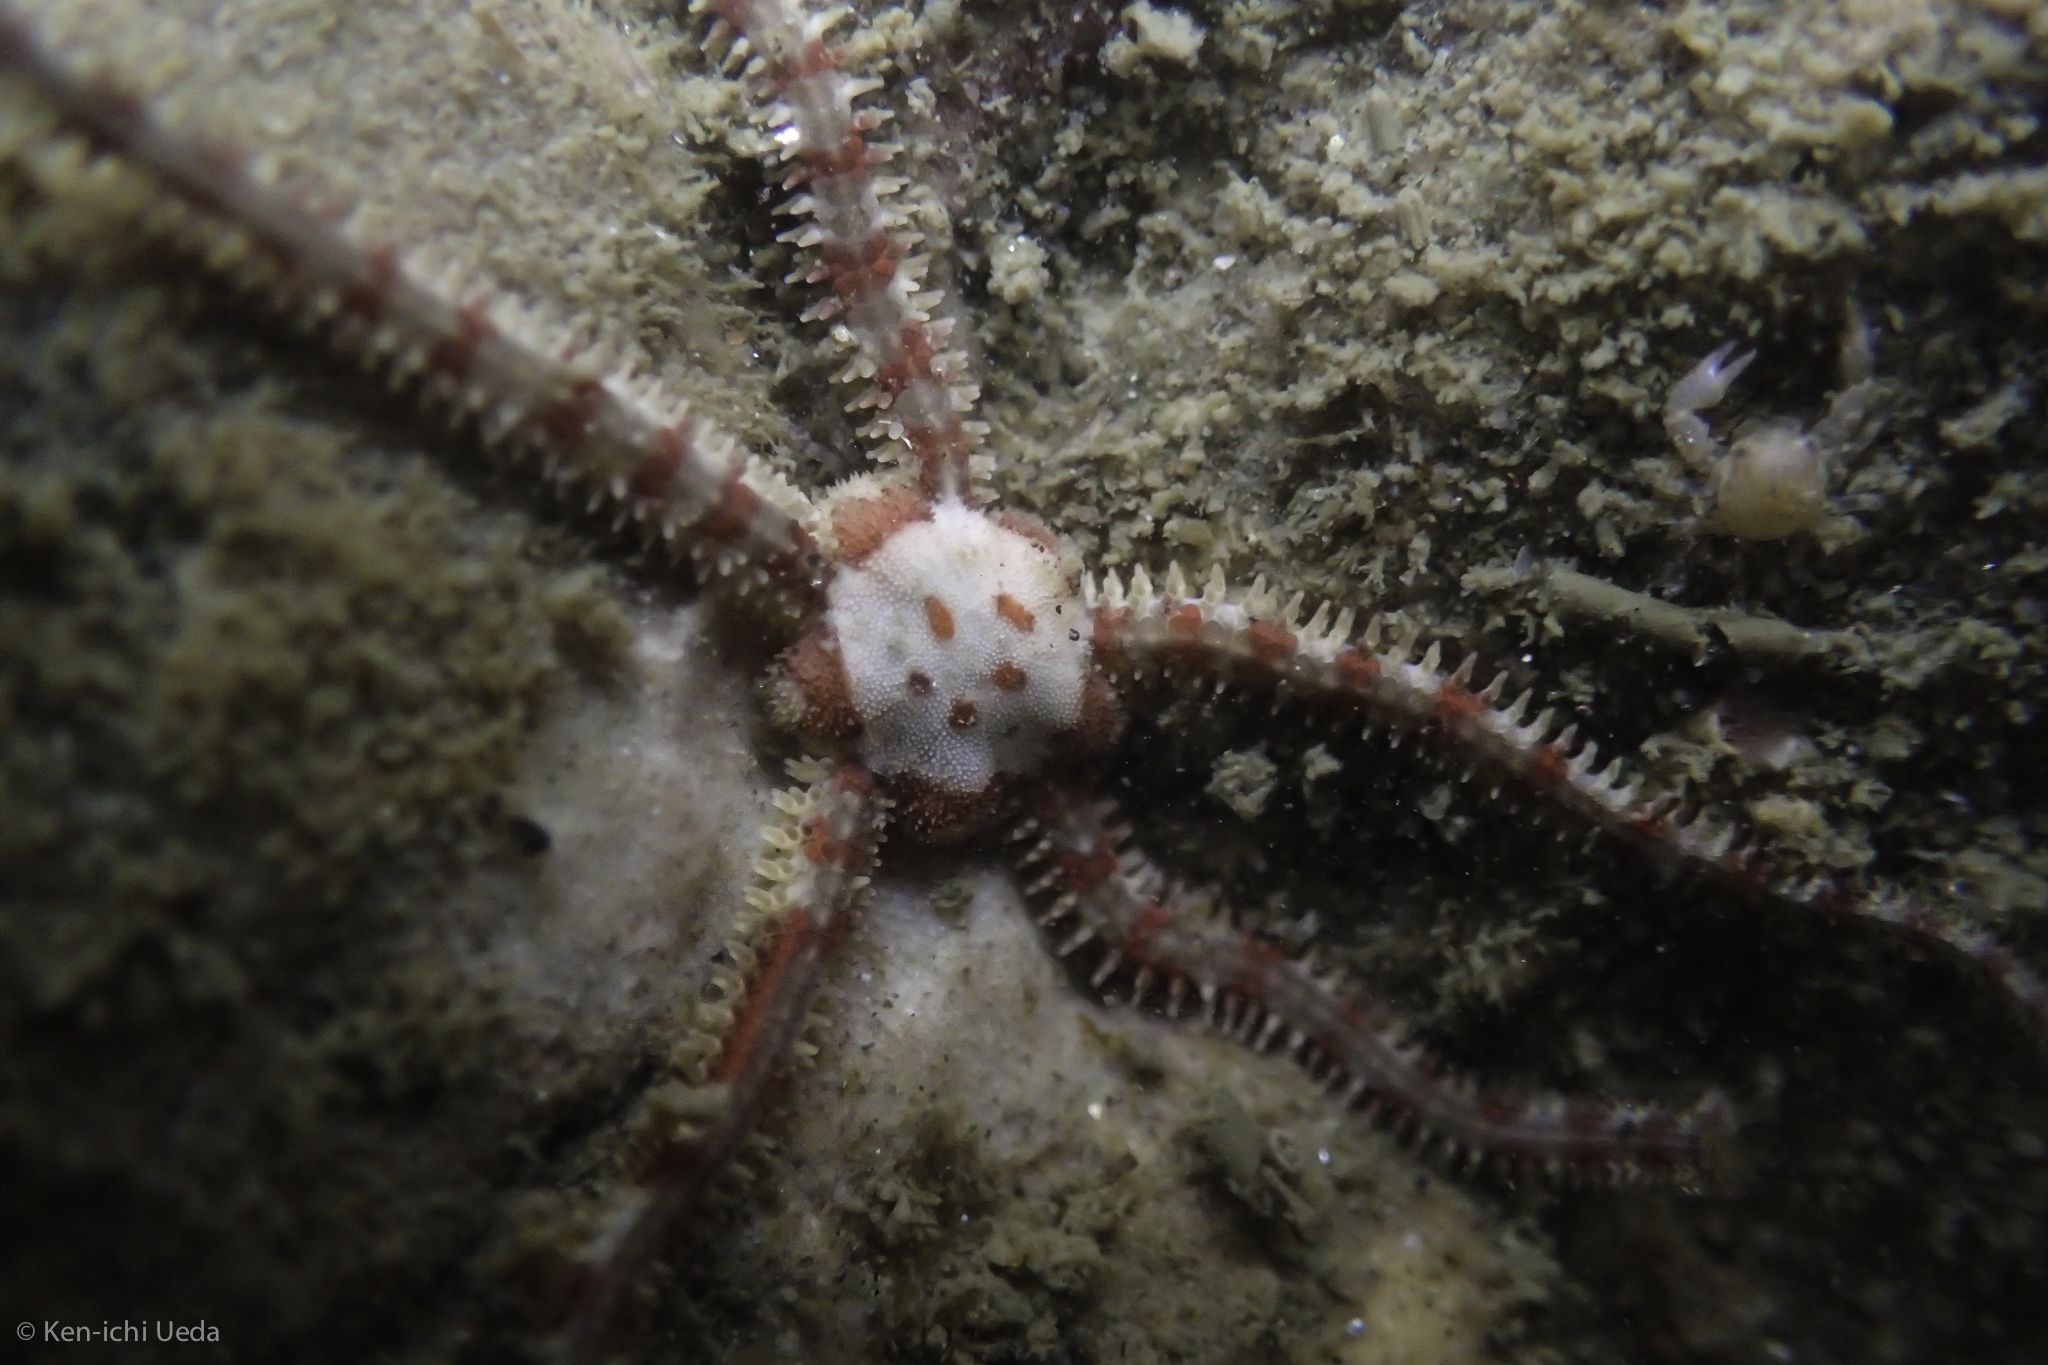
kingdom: Animalia
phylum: Echinodermata
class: Ophiuroidea
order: Amphilepidida
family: Ophiopholidae
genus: Ophiopholis
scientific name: Ophiopholis aculeata
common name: Crevice brittlestar
